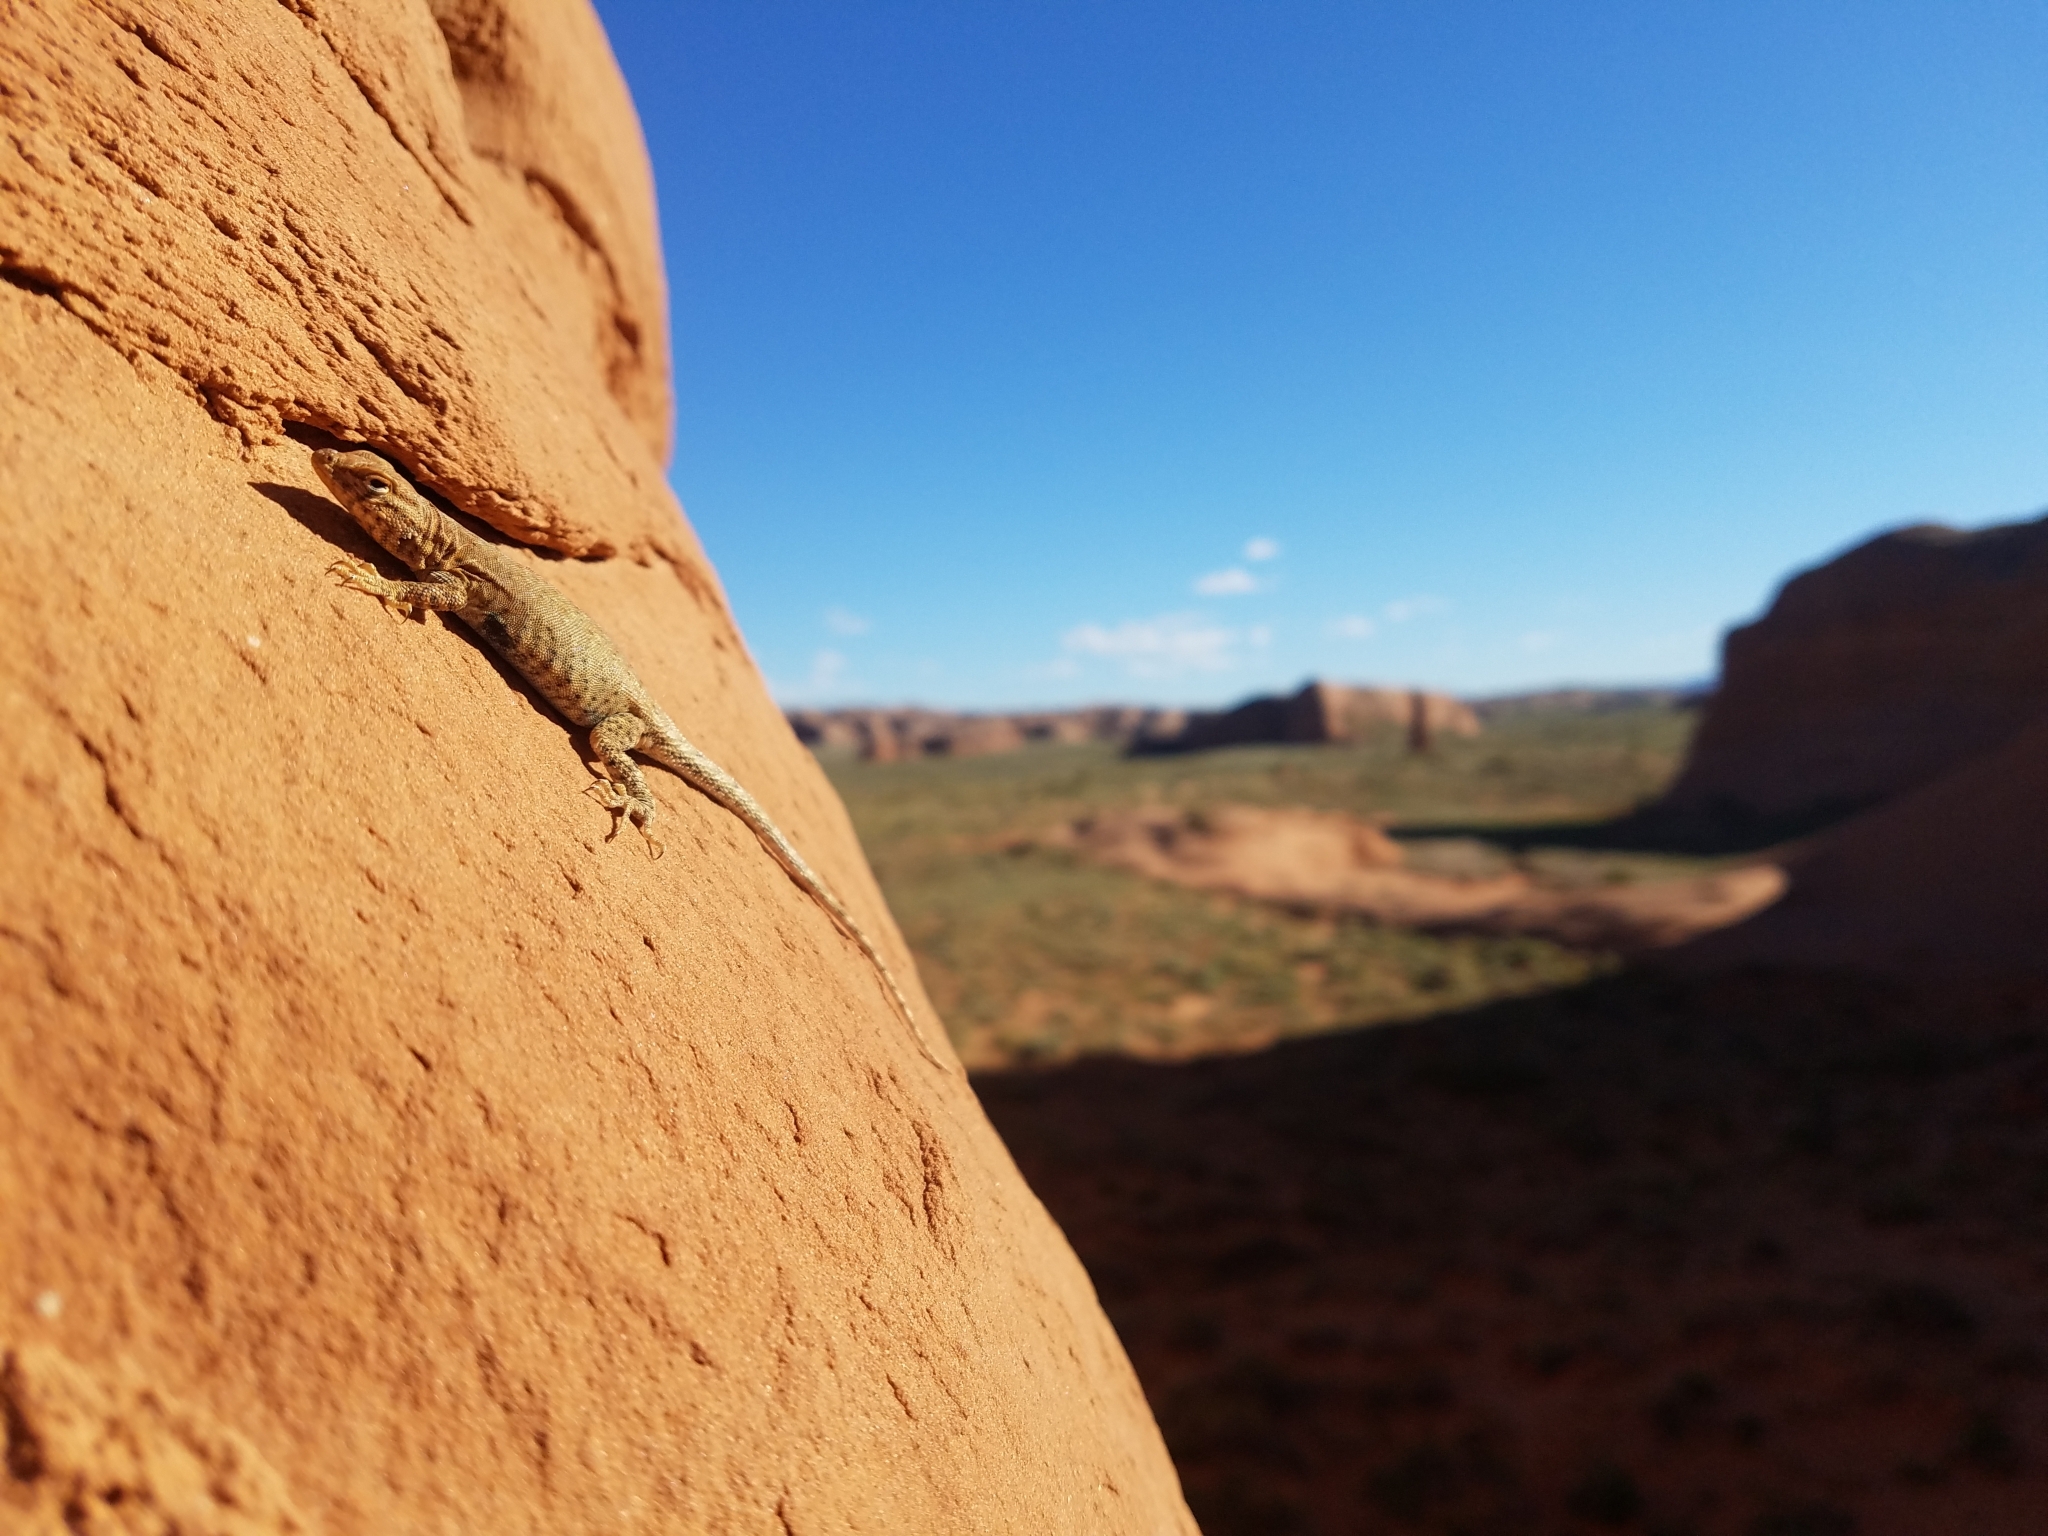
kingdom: Animalia
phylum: Chordata
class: Squamata
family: Phrynosomatidae
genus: Uta
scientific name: Uta stansburiana
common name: Side-blotched lizard
